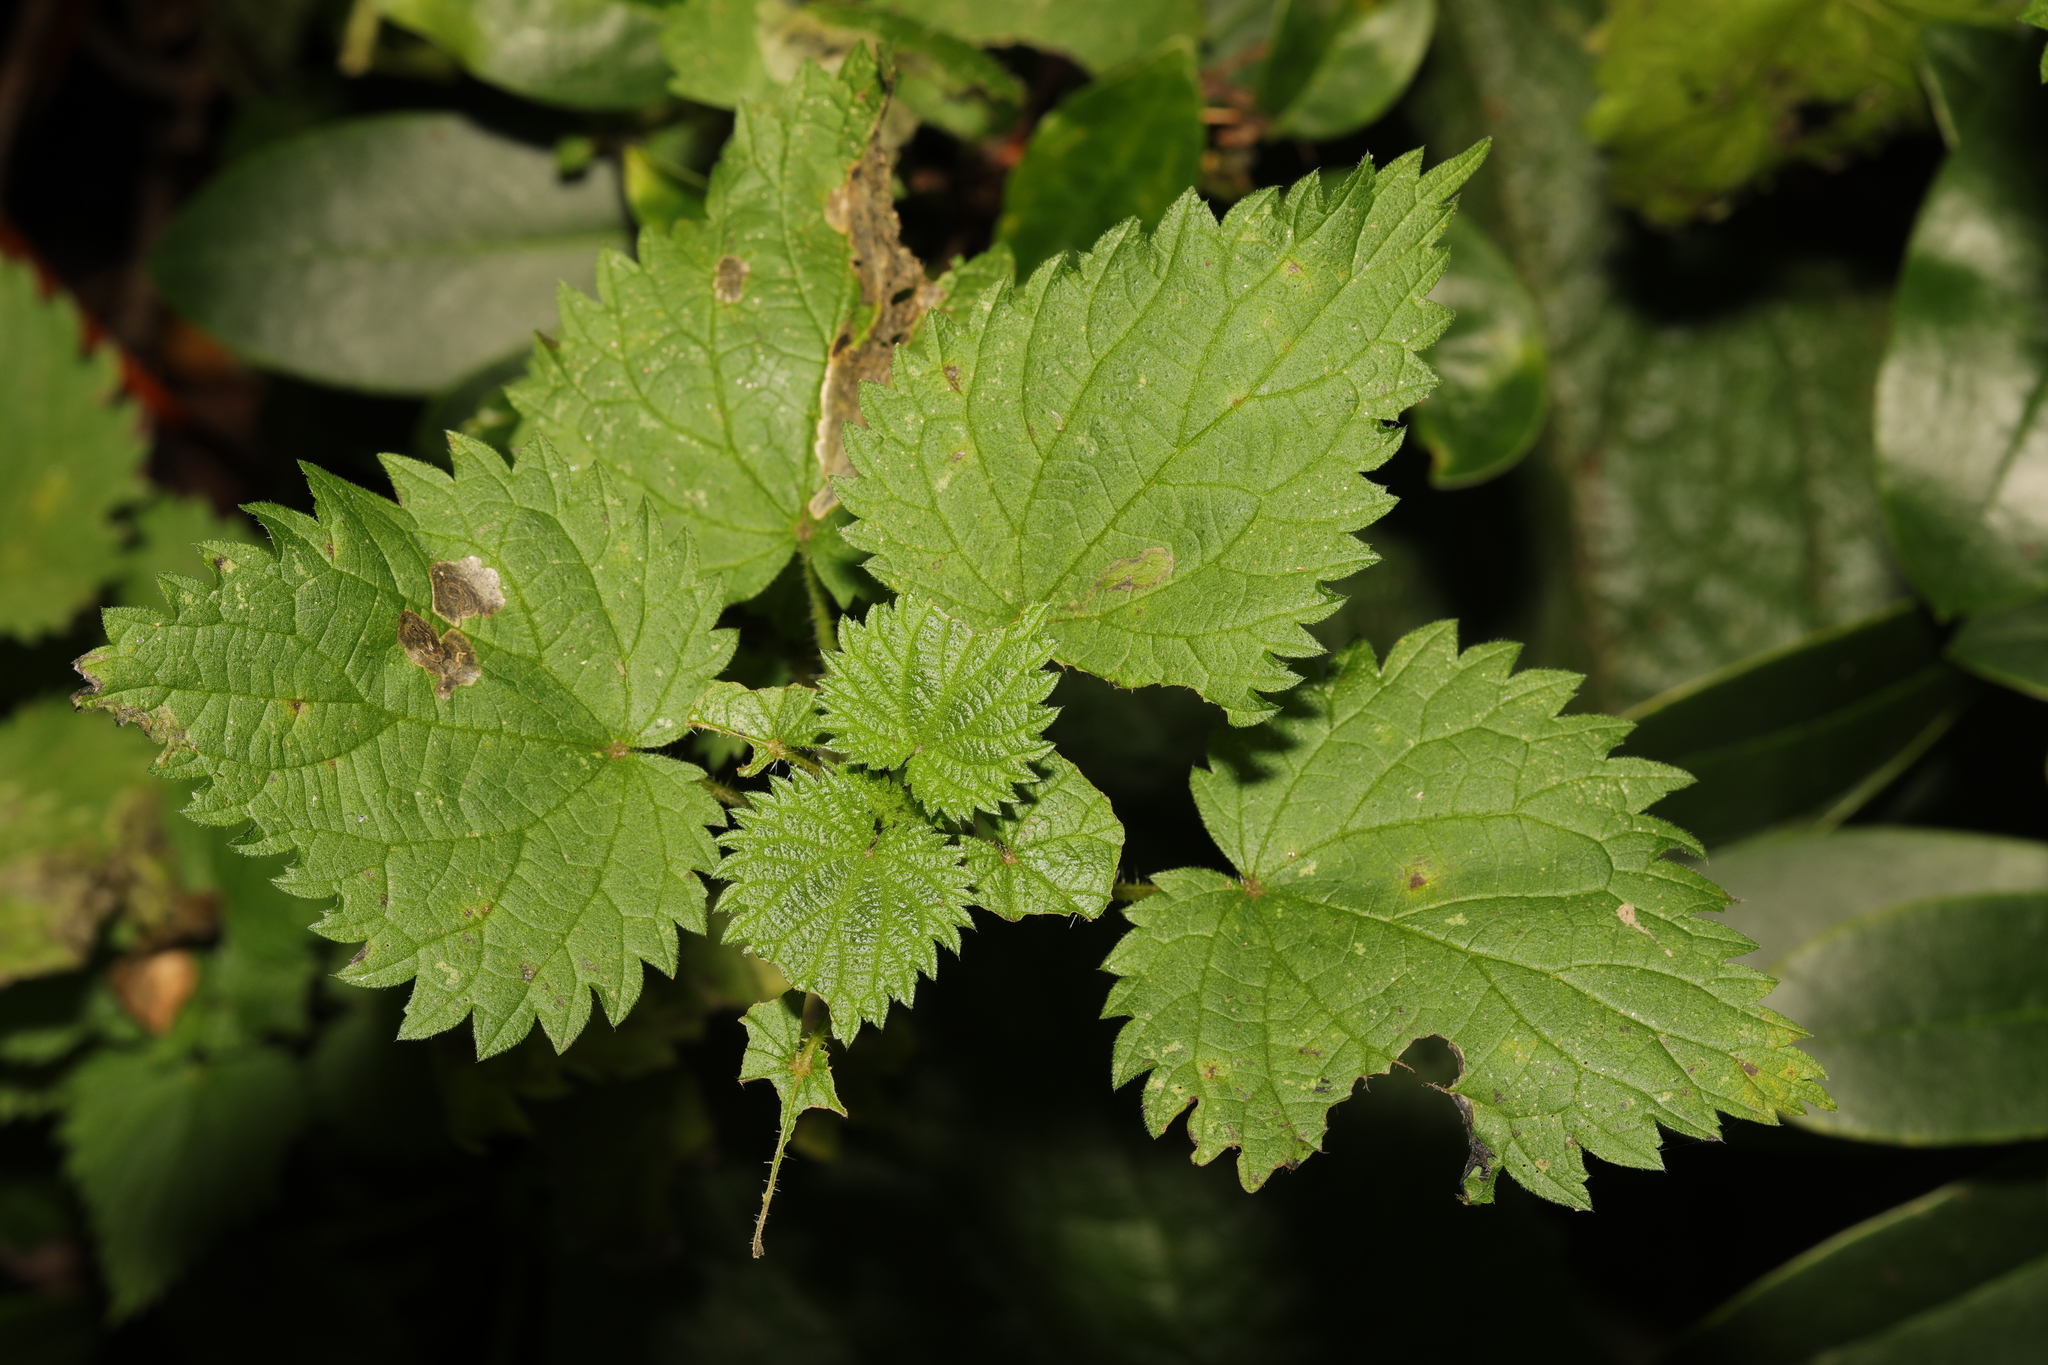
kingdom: Plantae
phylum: Tracheophyta
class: Magnoliopsida
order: Rosales
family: Urticaceae
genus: Urtica
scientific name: Urtica dioica
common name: Common nettle
